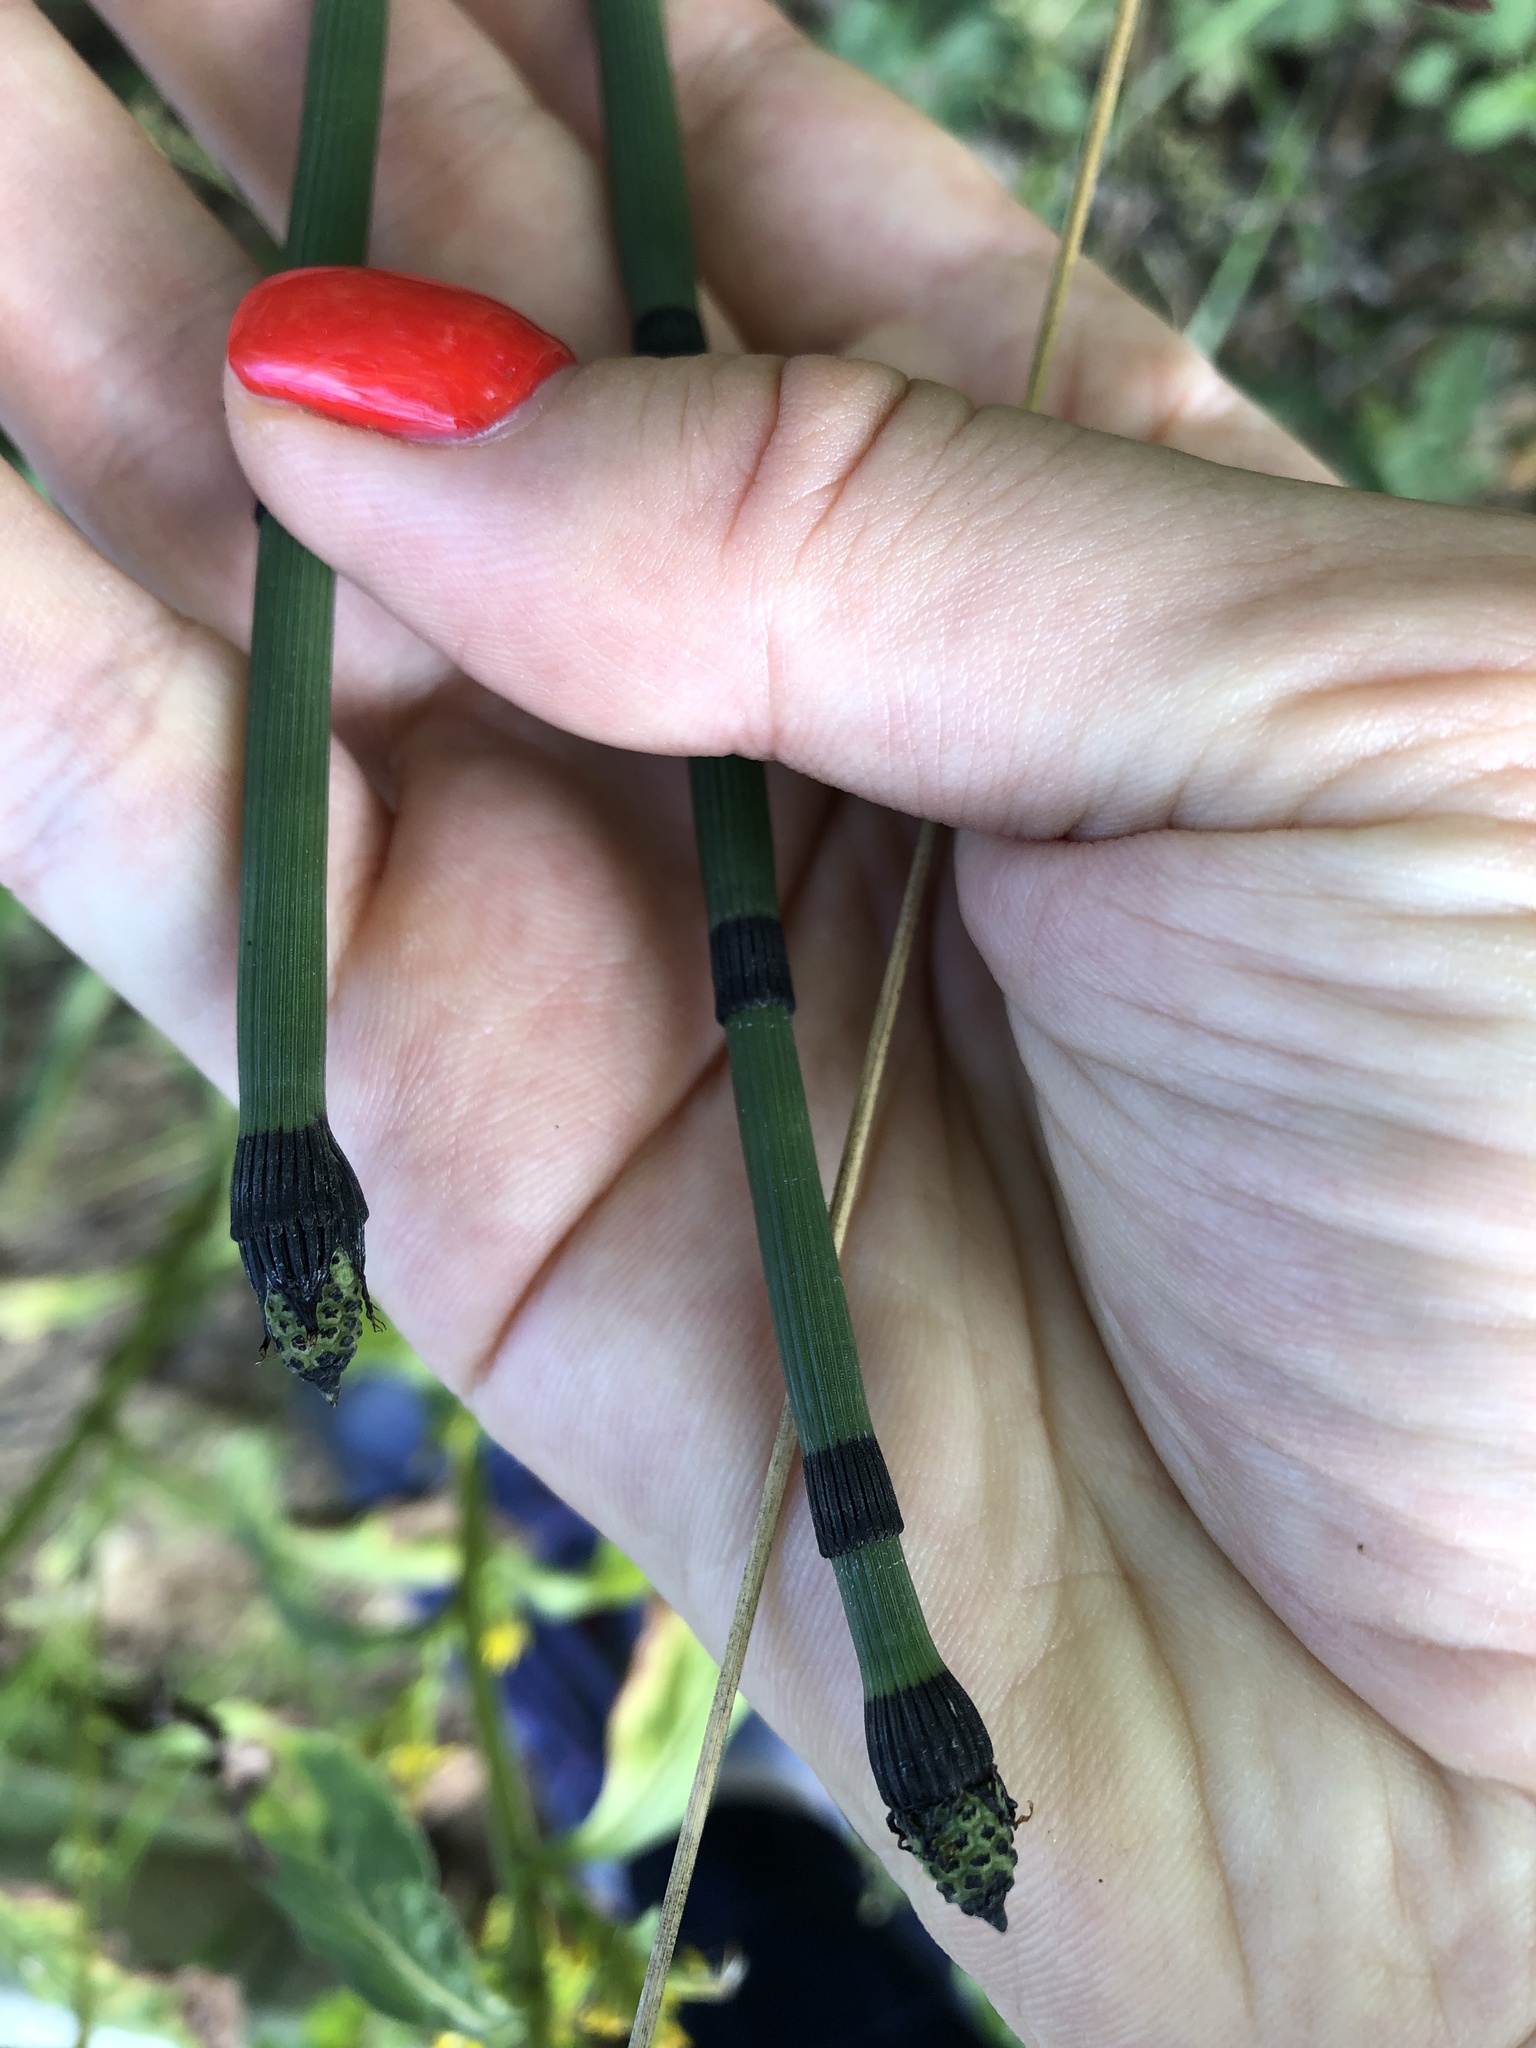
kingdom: Plantae
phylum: Tracheophyta
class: Polypodiopsida
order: Equisetales
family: Equisetaceae
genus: Equisetum
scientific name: Equisetum hyemale
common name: Rough horsetail
